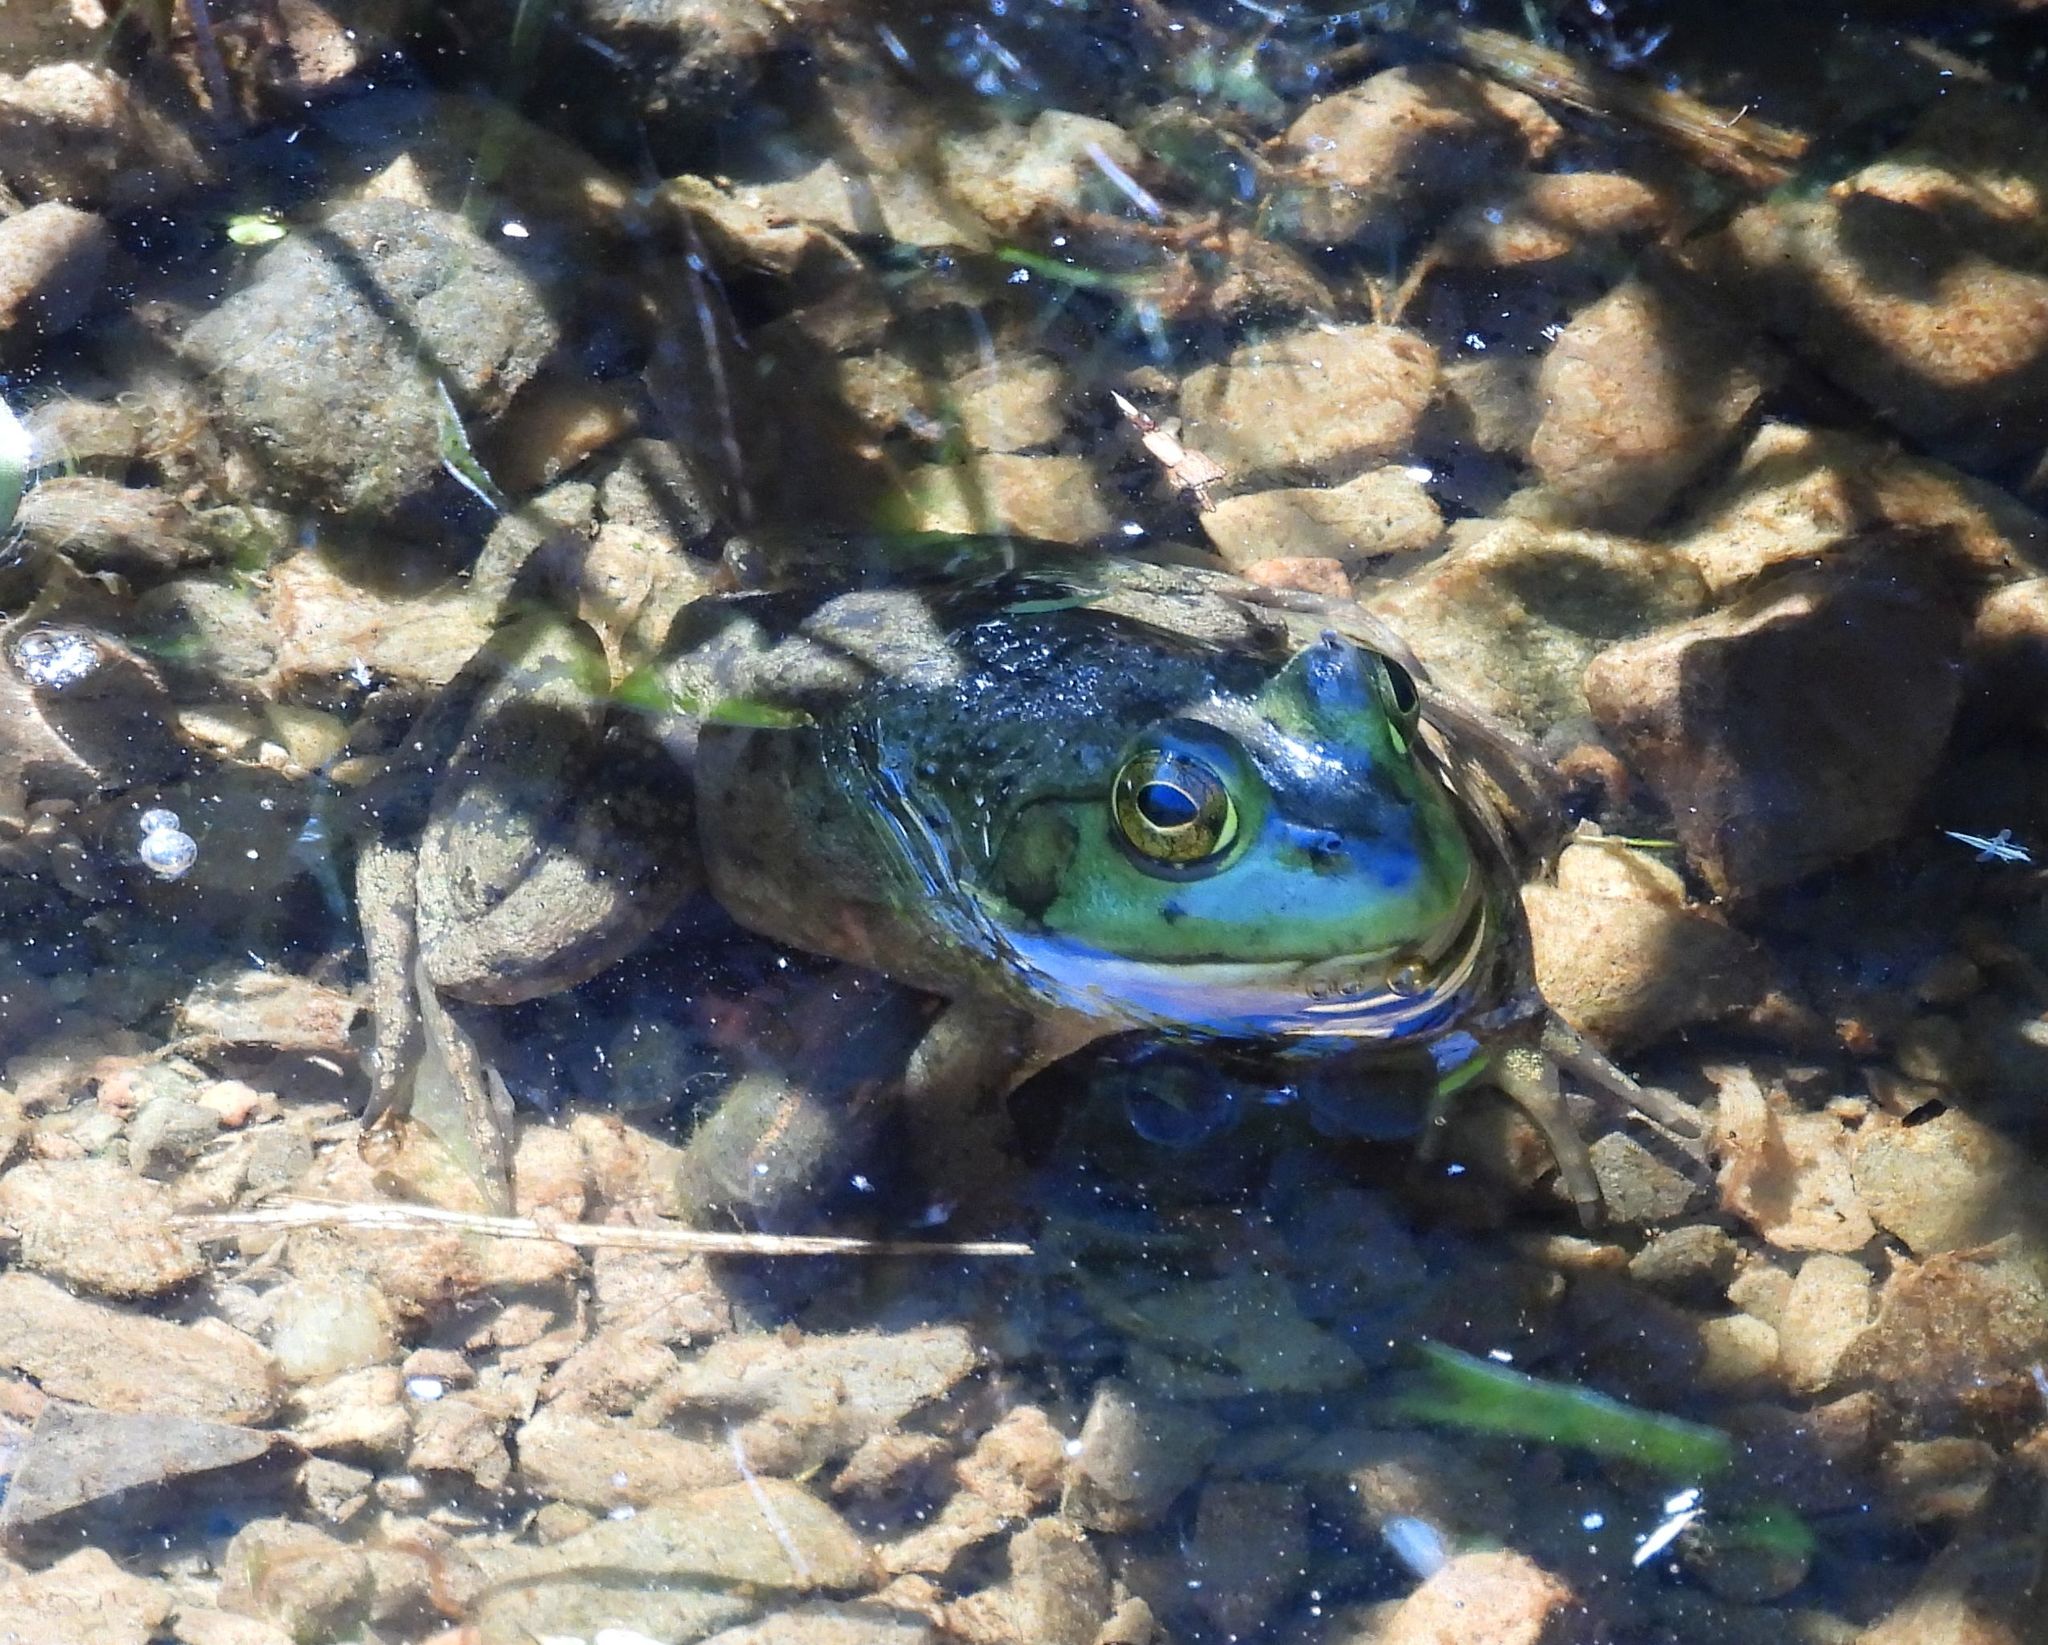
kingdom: Animalia
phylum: Chordata
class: Amphibia
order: Anura
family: Ranidae
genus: Lithobates
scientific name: Lithobates catesbeianus
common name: American bullfrog
